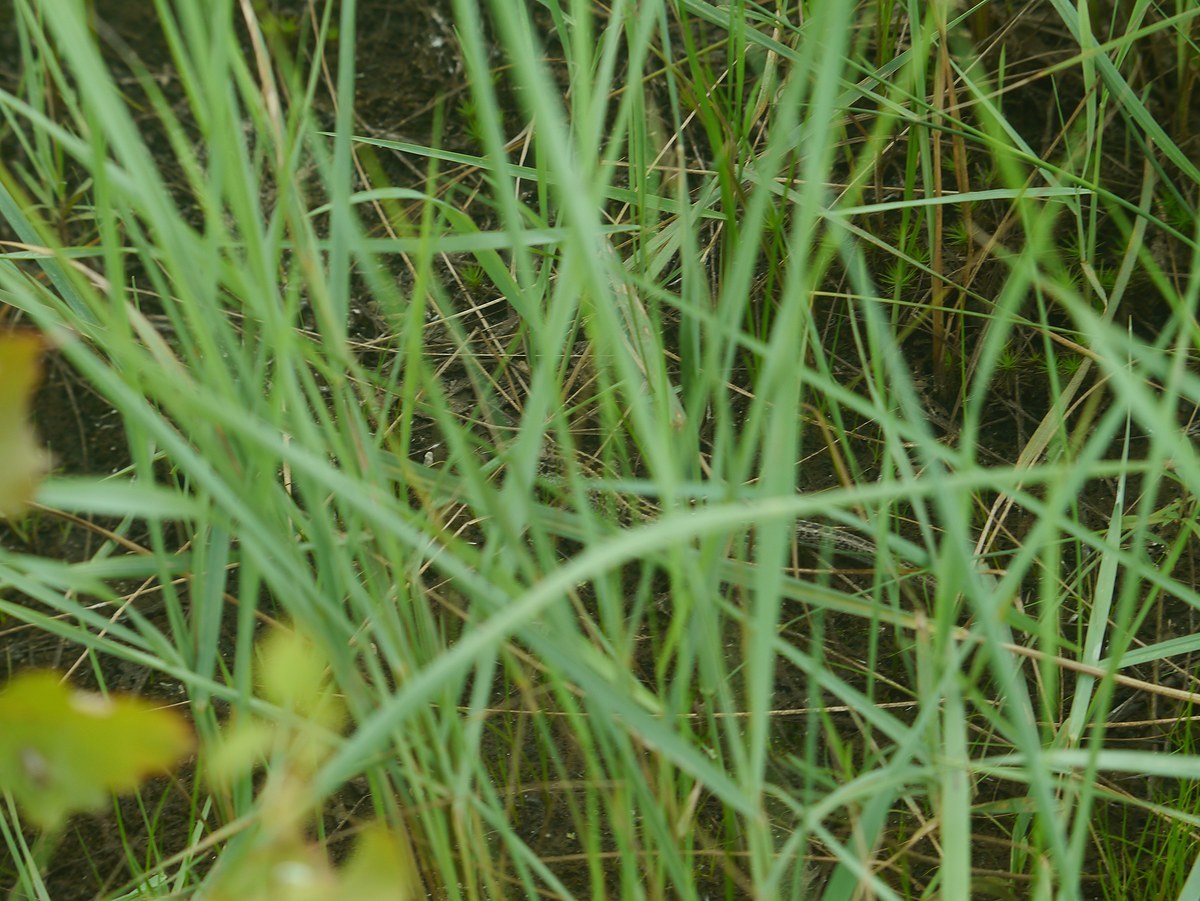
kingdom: Animalia
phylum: Chordata
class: Squamata
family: Lacertidae
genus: Lacerta
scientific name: Lacerta agilis
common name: Sand lizard
